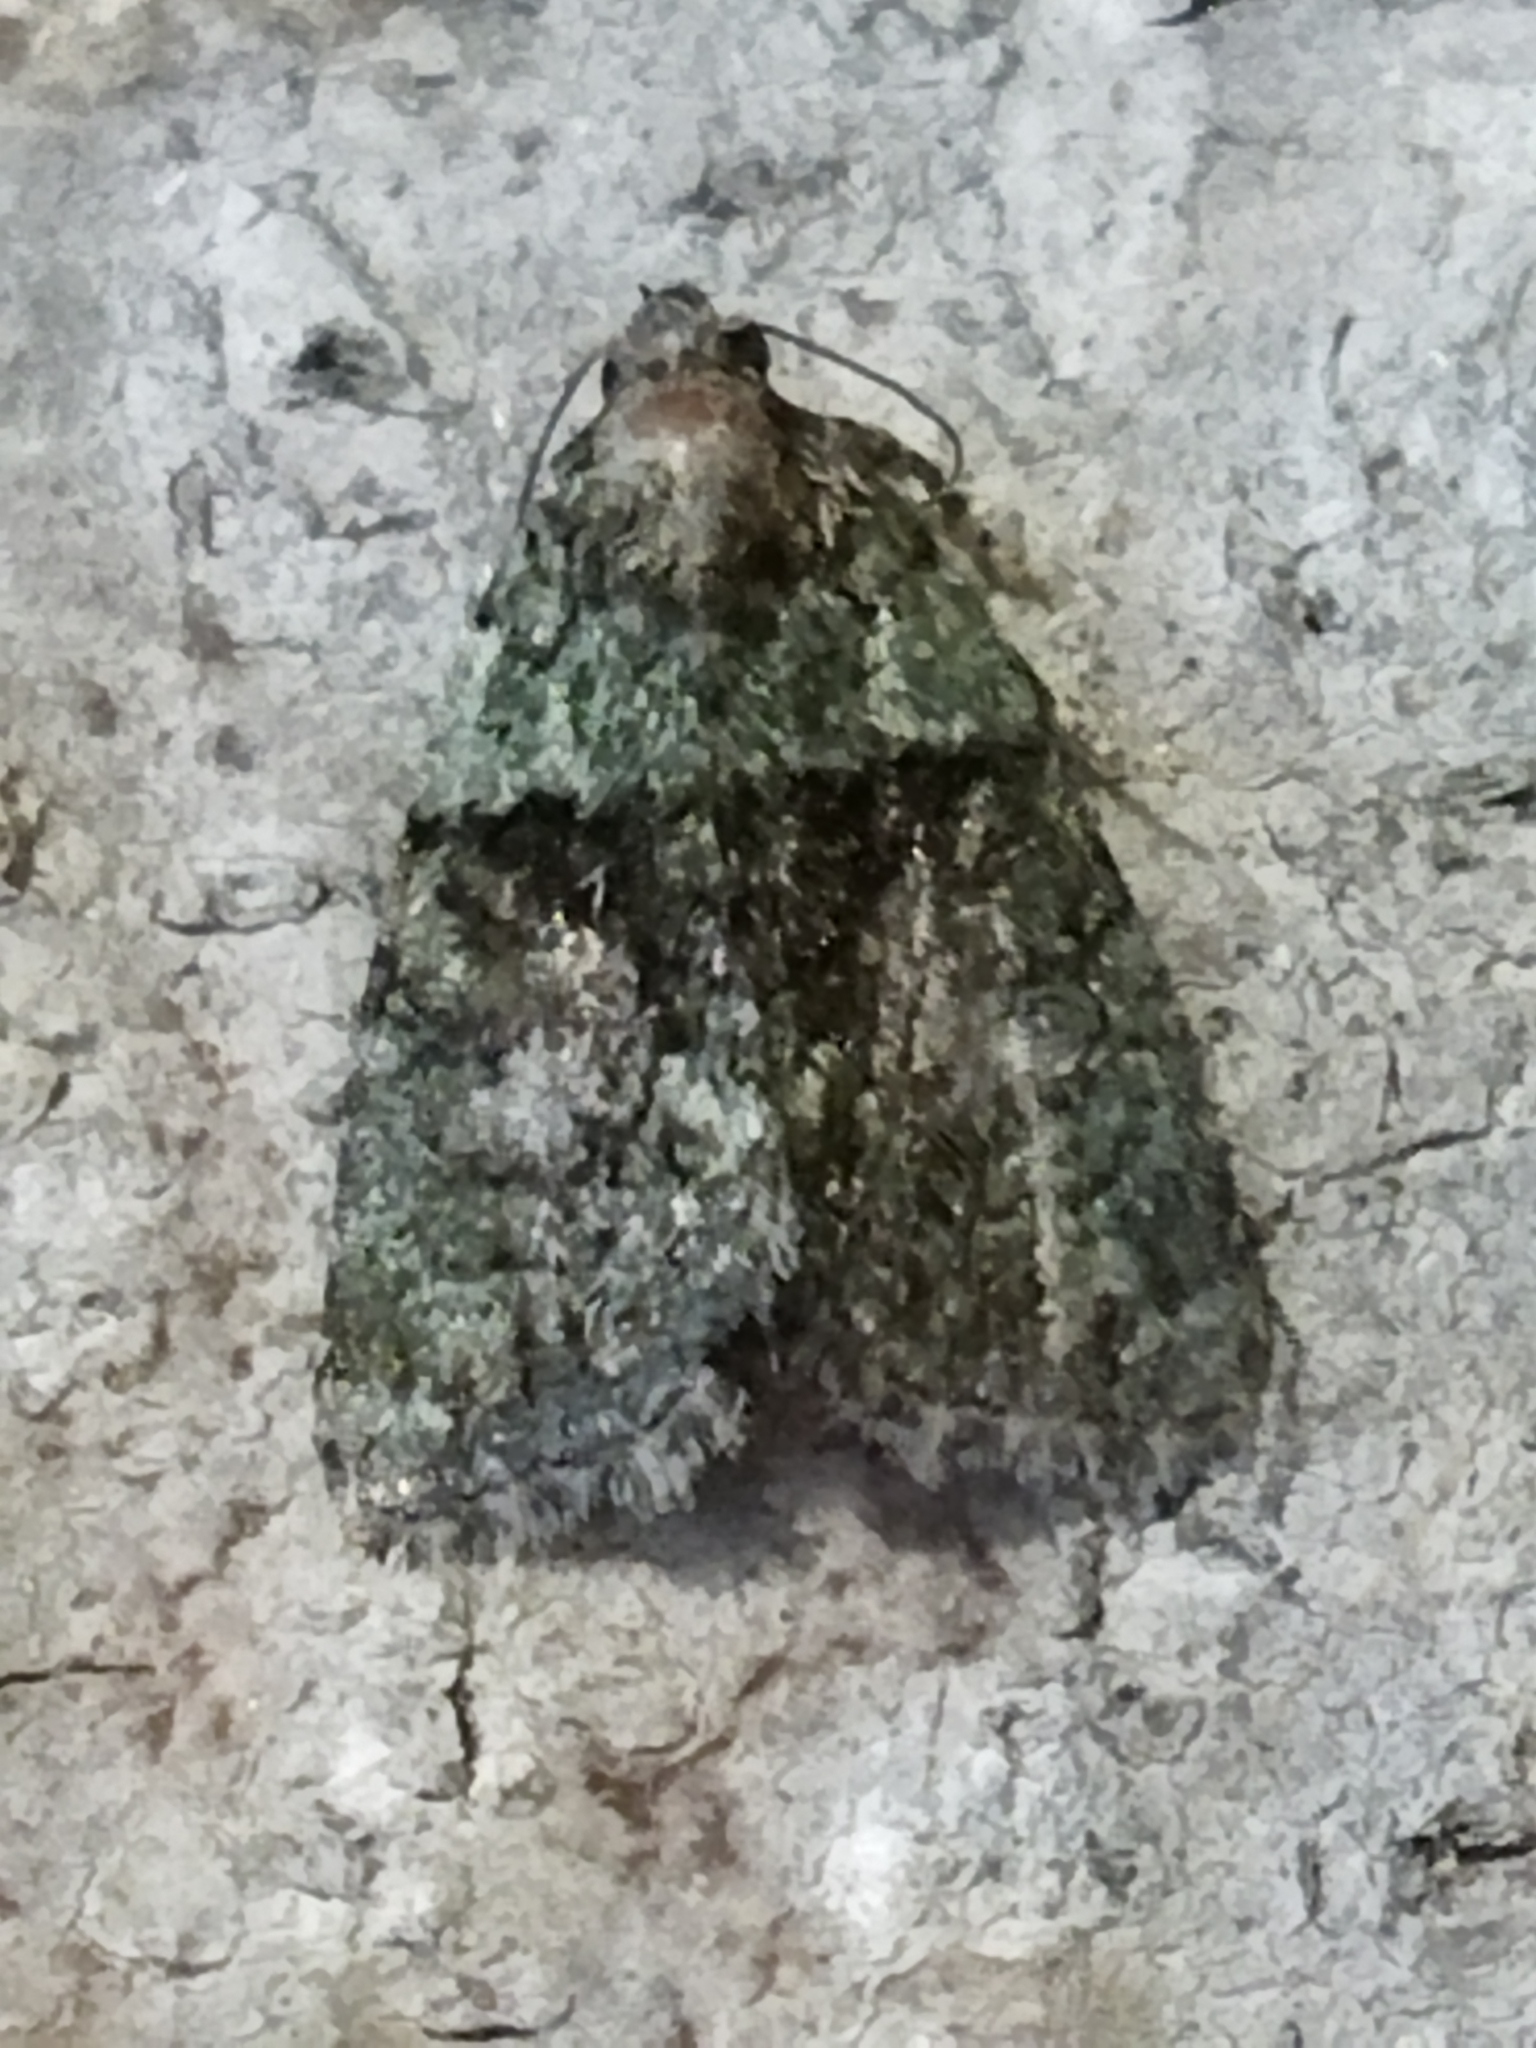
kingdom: Animalia
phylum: Arthropoda
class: Insecta
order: Lepidoptera
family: Noctuidae
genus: Cryphia
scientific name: Cryphia algae
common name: Tree-lichen beauty
